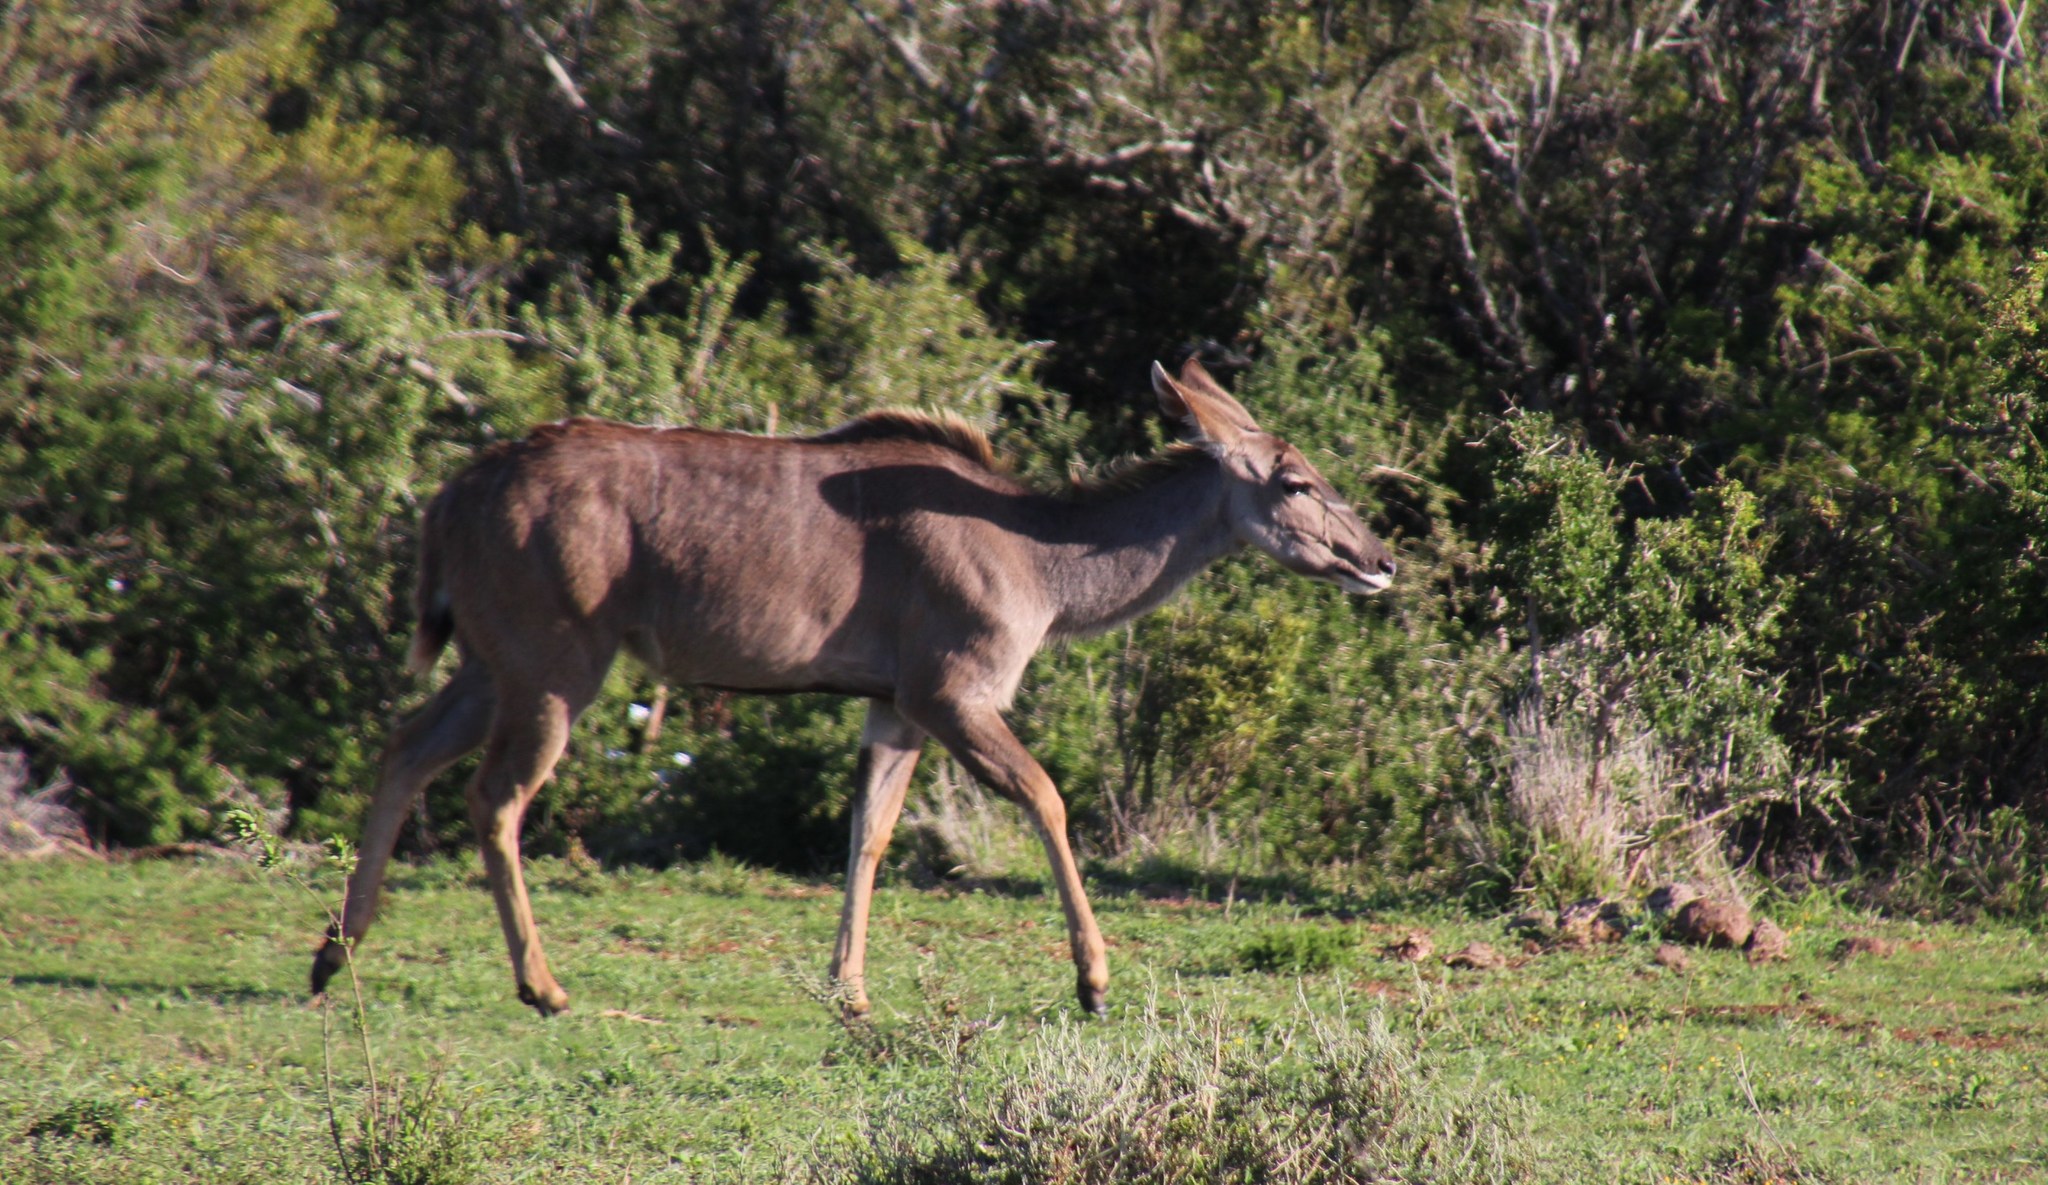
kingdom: Animalia
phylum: Chordata
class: Mammalia
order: Artiodactyla
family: Bovidae
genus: Tragelaphus
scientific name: Tragelaphus strepsiceros
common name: Greater kudu
